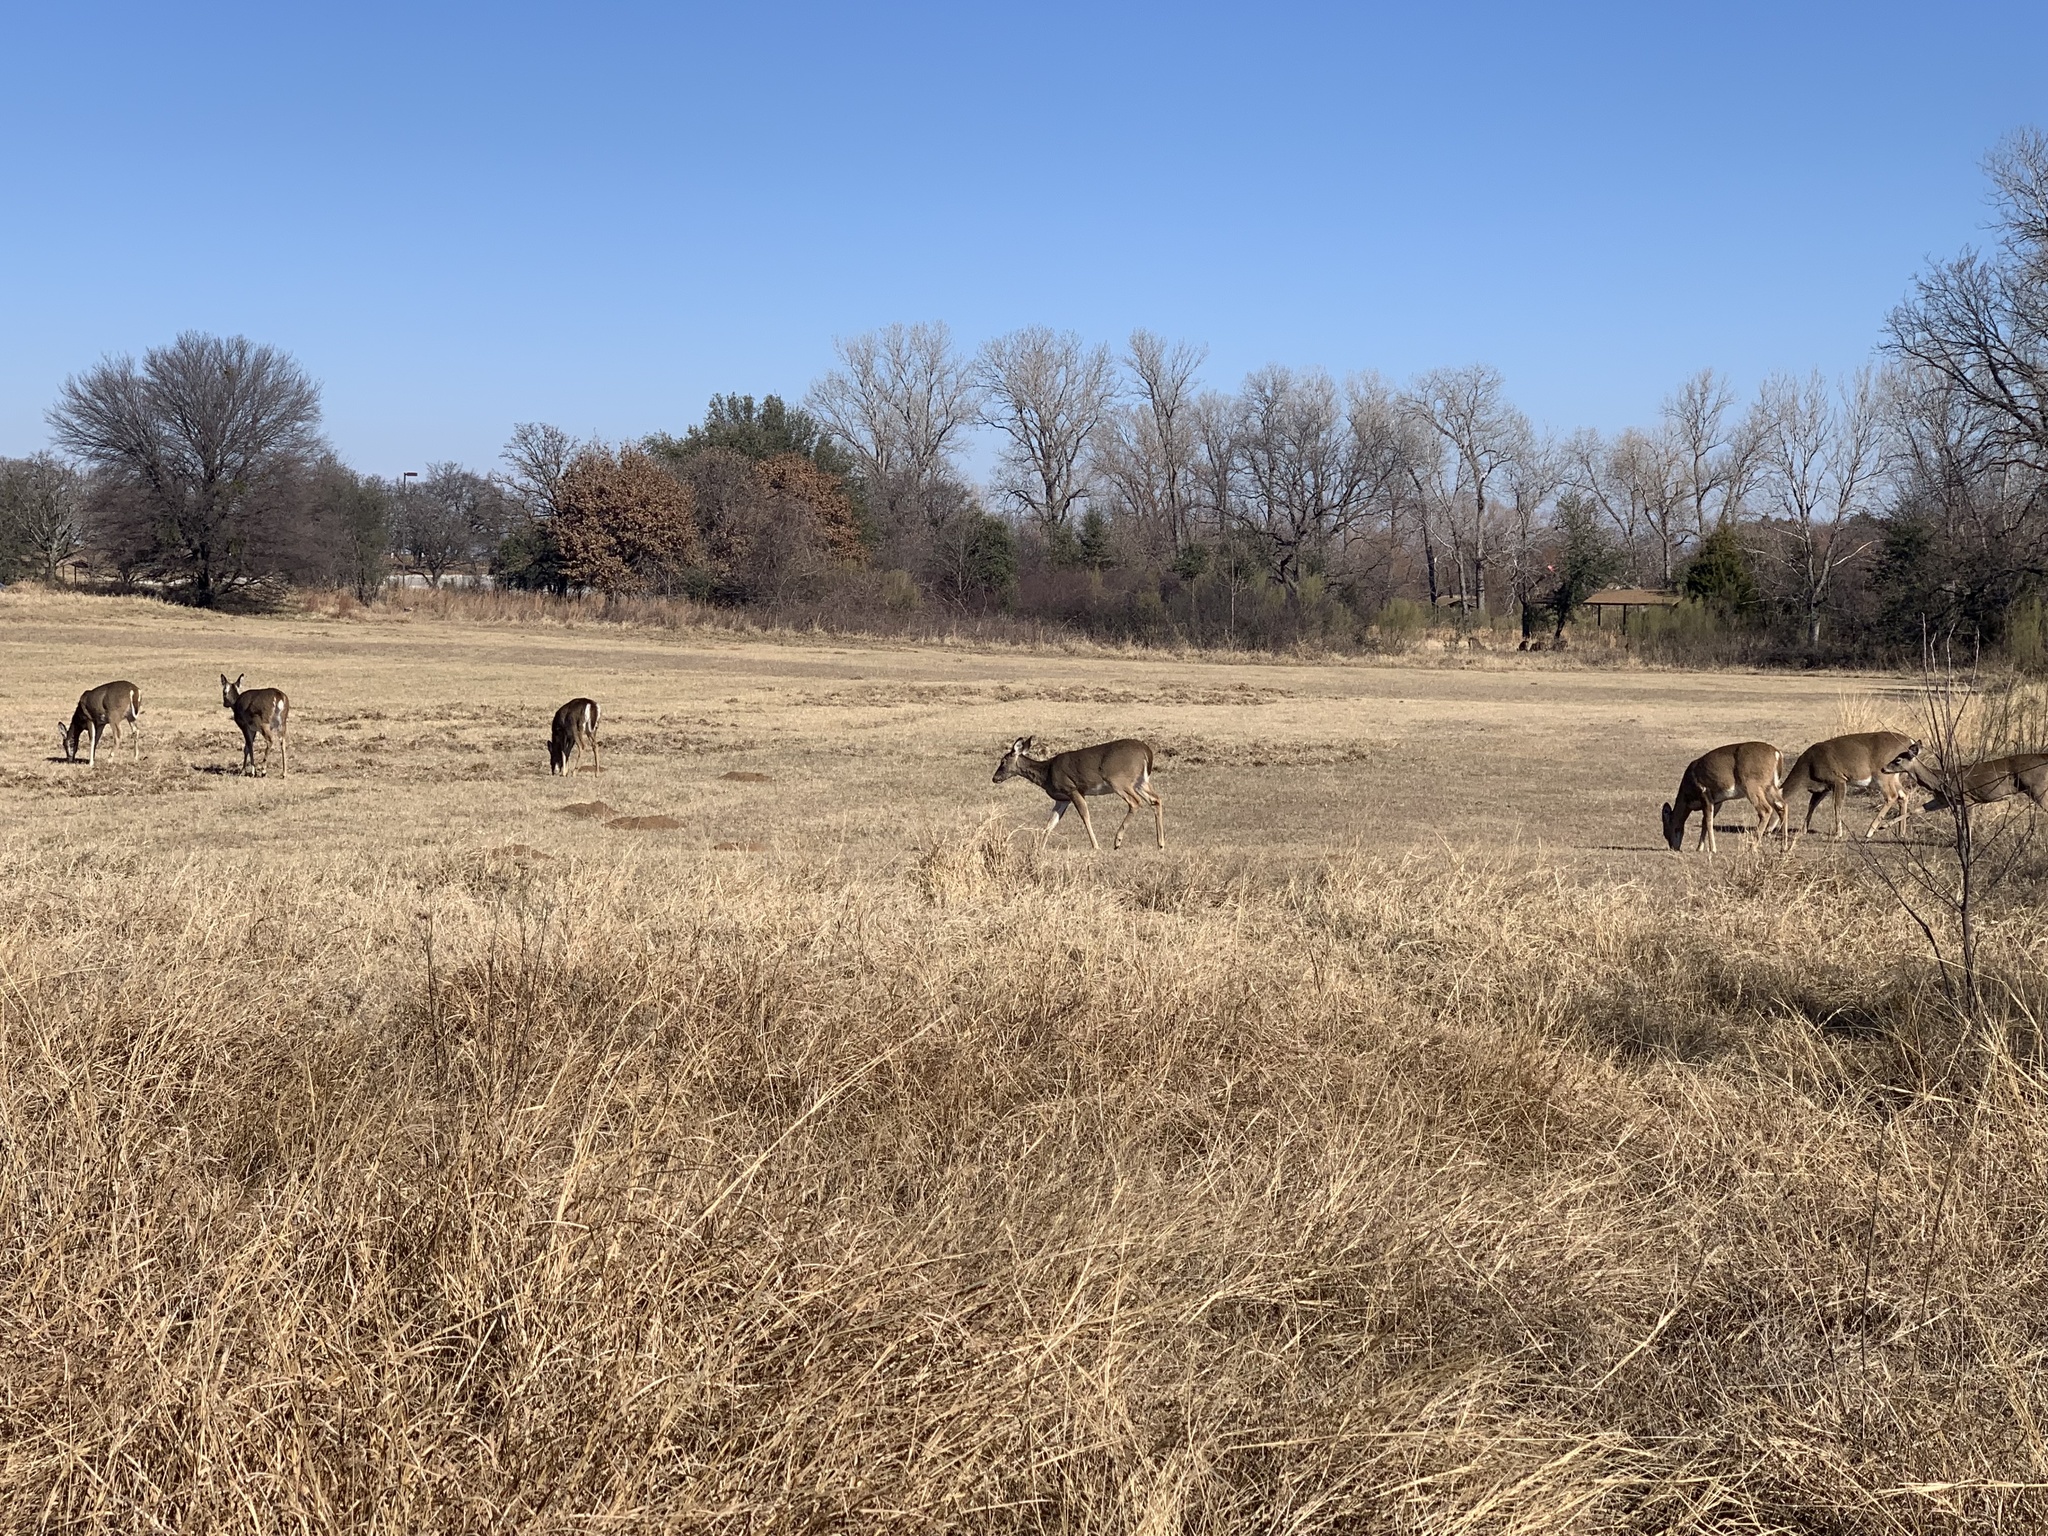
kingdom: Animalia
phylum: Chordata
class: Mammalia
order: Artiodactyla
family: Cervidae
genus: Odocoileus
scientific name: Odocoileus virginianus
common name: White-tailed deer
